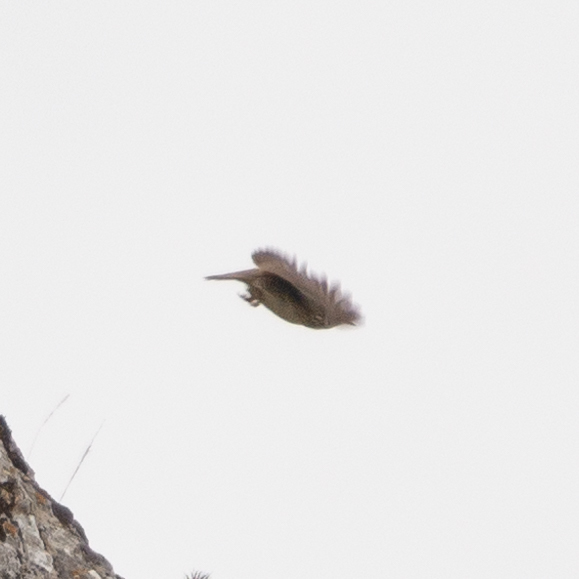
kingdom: Animalia
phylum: Chordata
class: Aves
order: Passeriformes
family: Alaudidae
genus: Lullula
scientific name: Lullula arborea
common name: Woodlark
